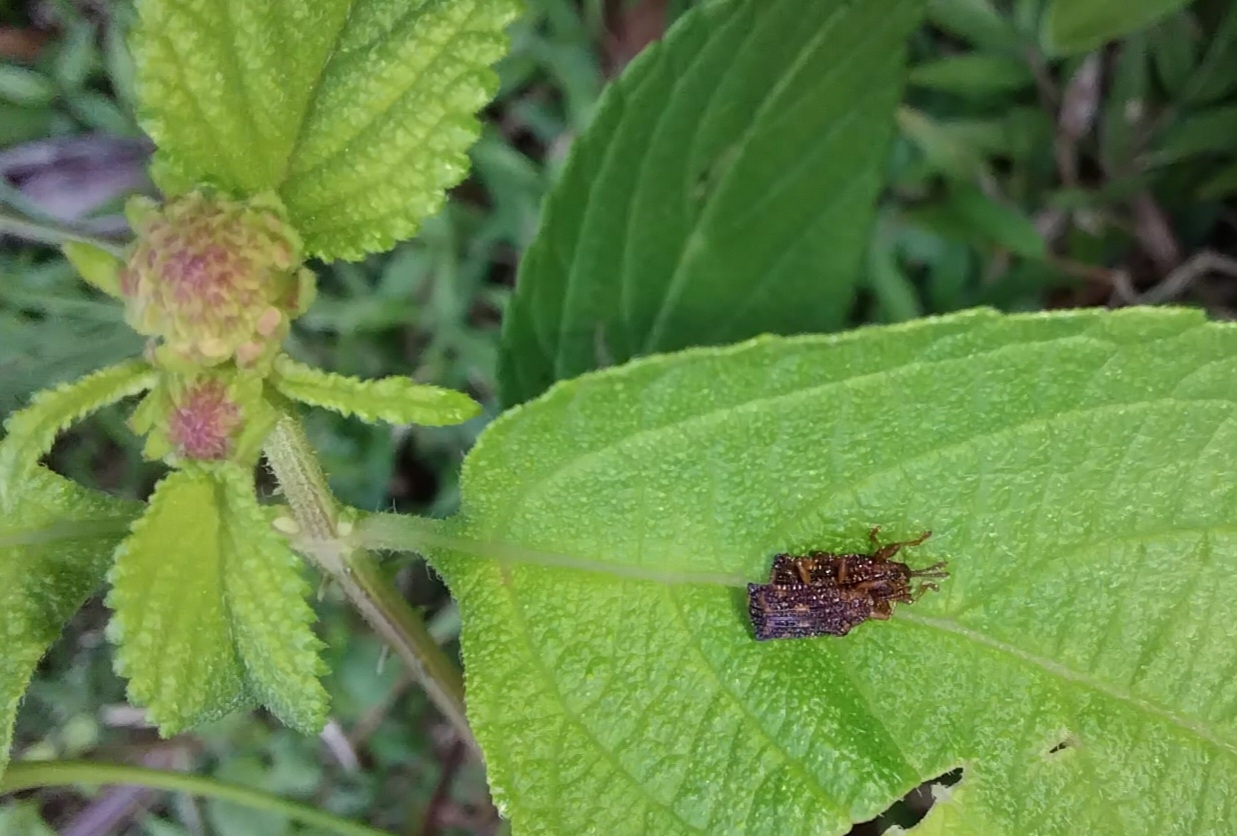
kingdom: Animalia
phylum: Arthropoda
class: Insecta
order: Coleoptera
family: Chrysomelidae
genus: Uroplata
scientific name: Uroplata girardi
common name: Lantana leafminer
